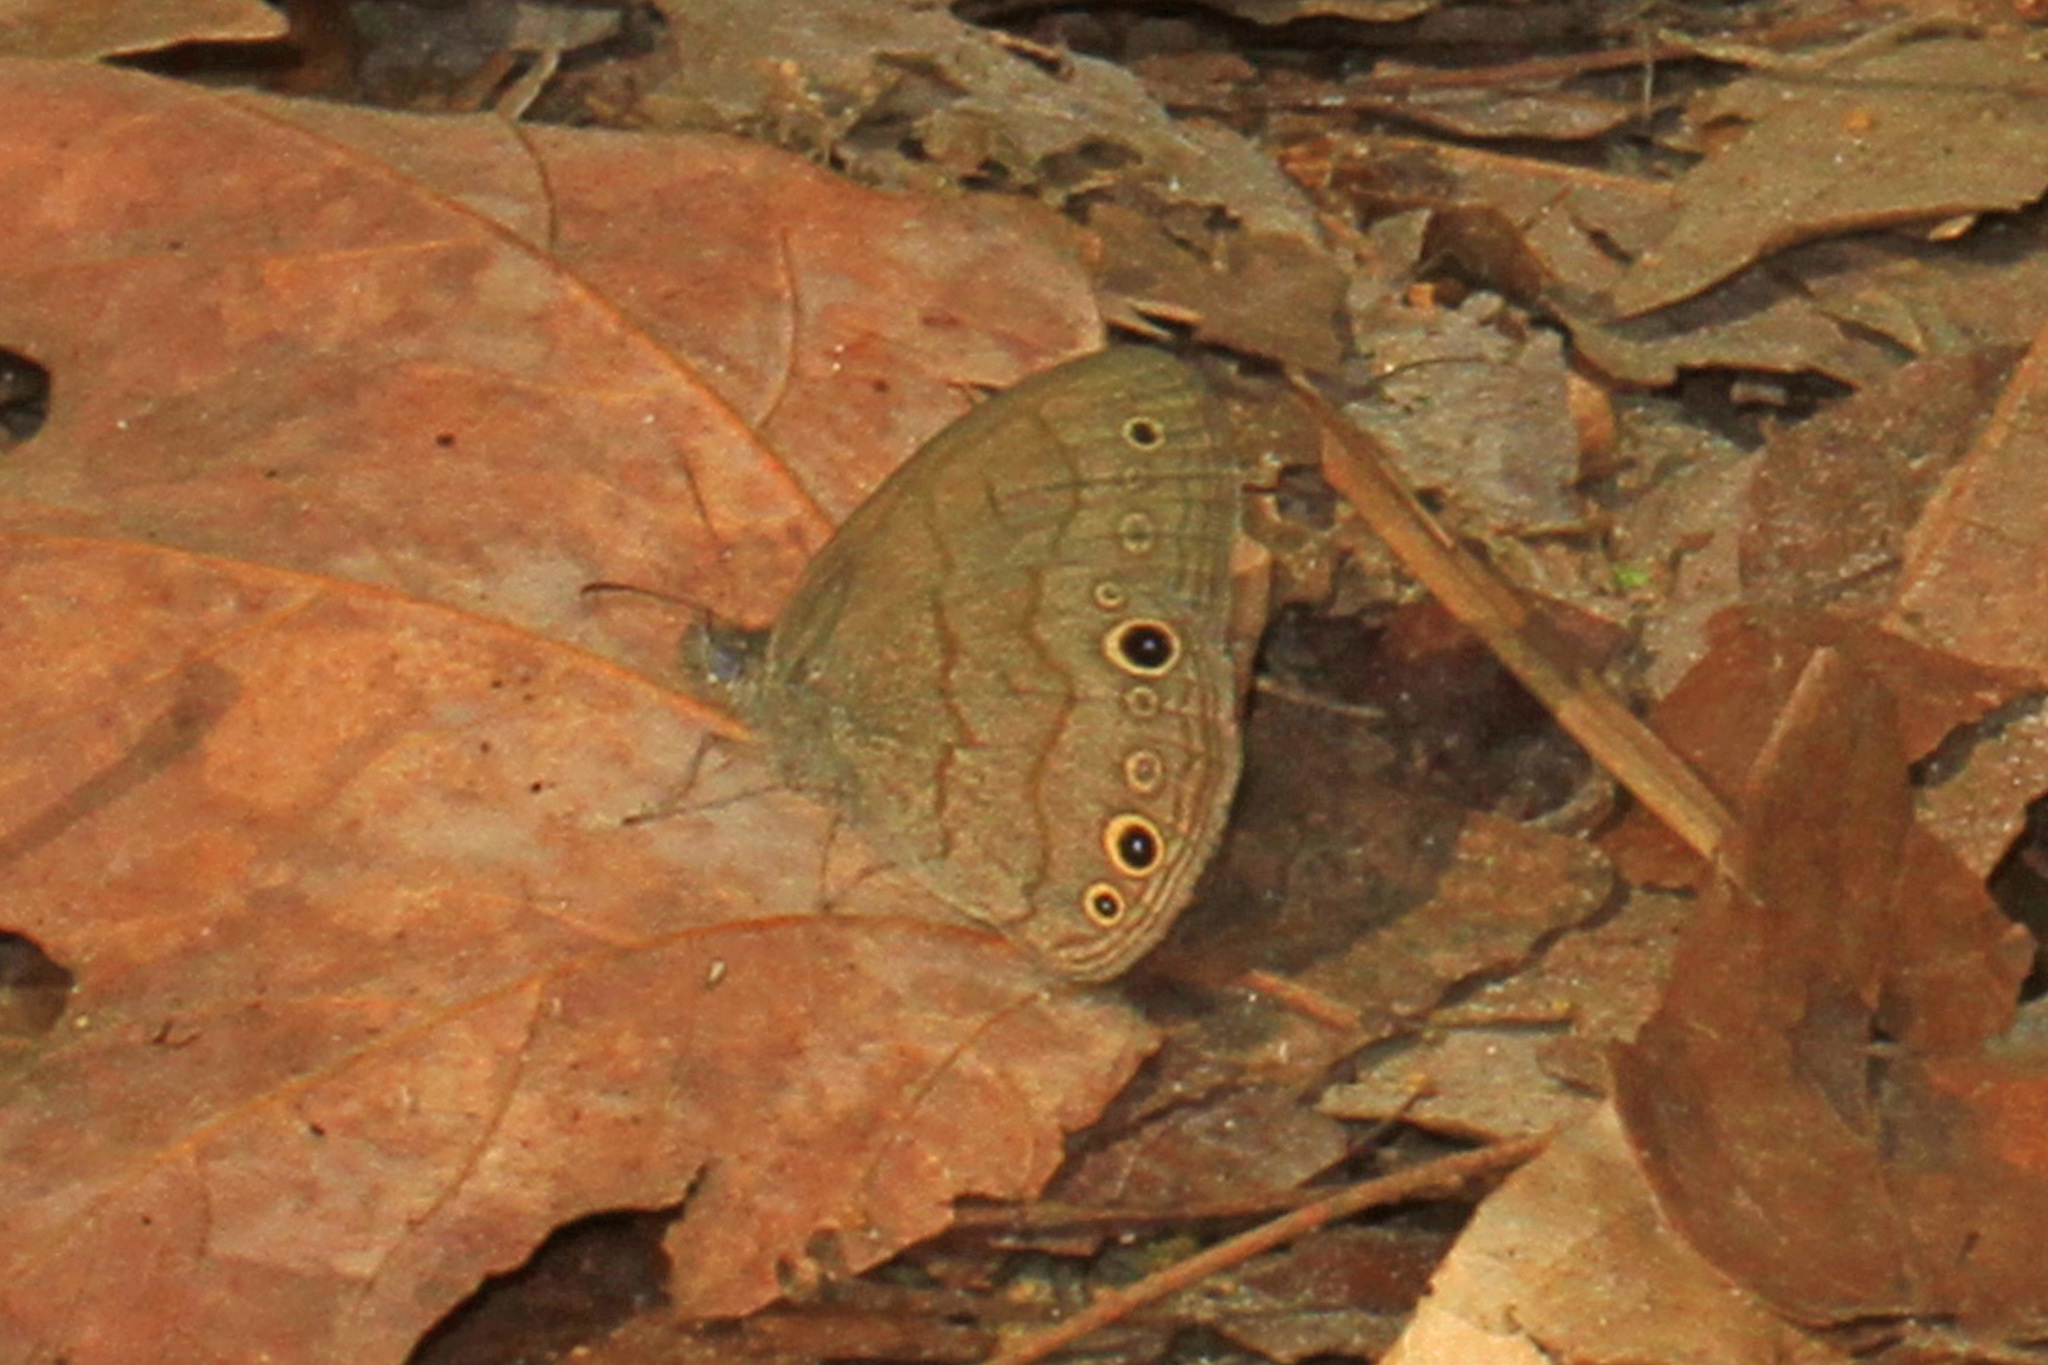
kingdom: Animalia
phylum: Arthropoda
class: Insecta
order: Lepidoptera
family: Nymphalidae
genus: Hermeuptychia
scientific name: Hermeuptychia hermes
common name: Hermes satyr
